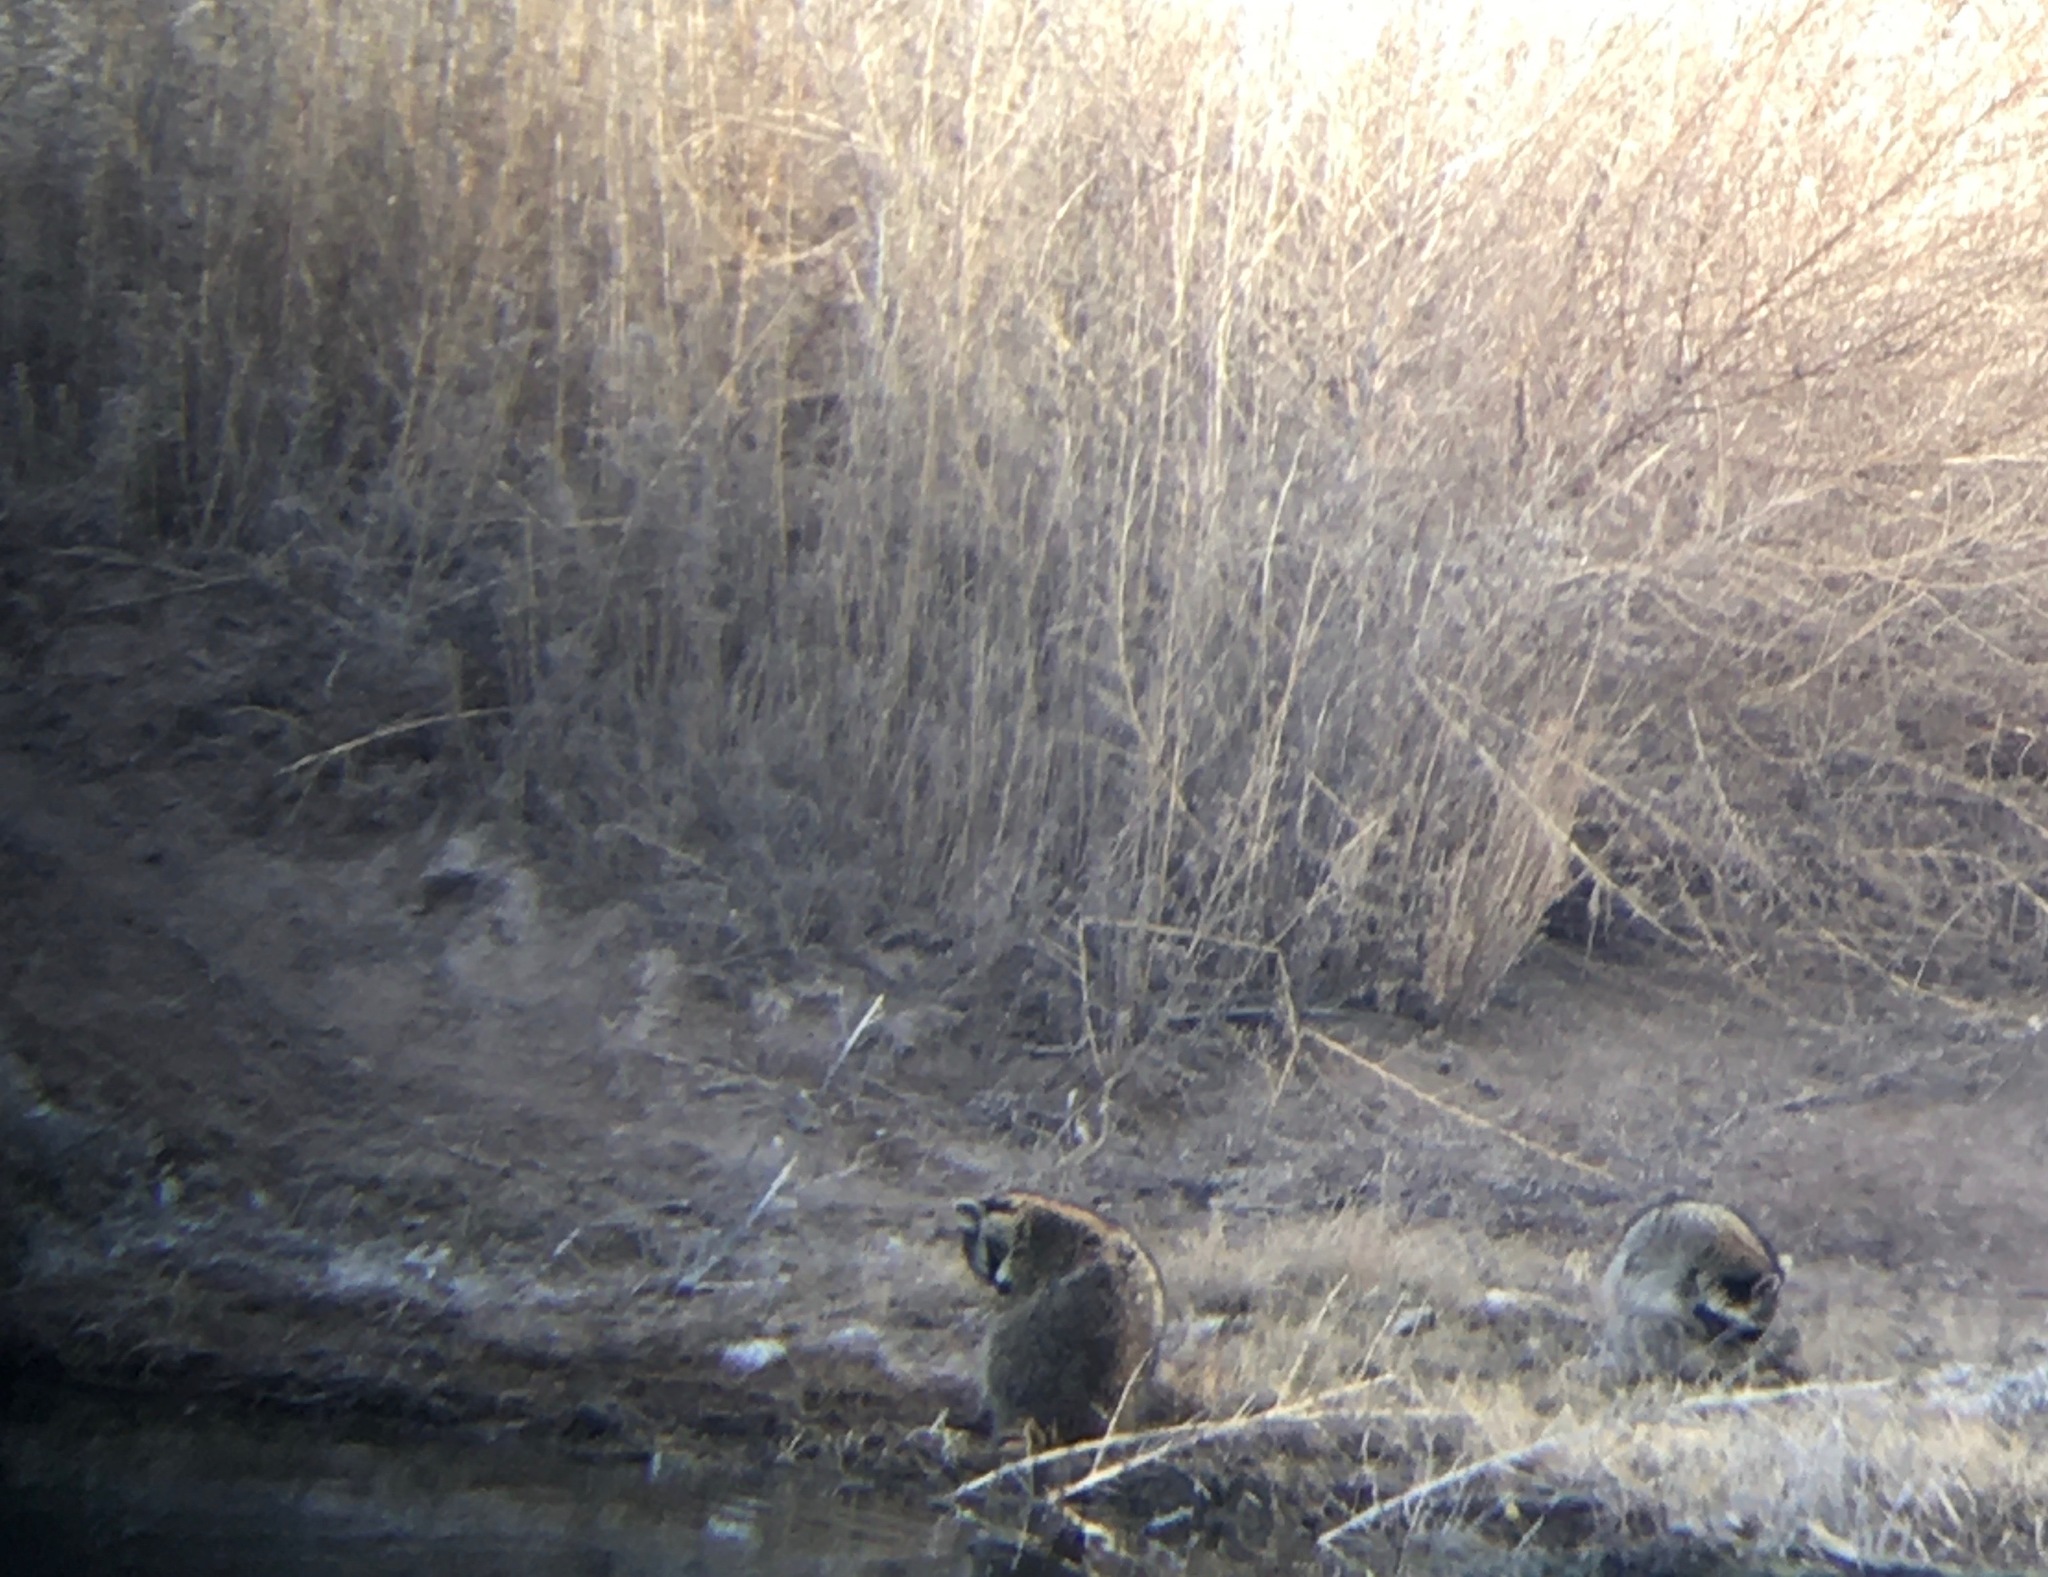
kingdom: Animalia
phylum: Chordata
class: Mammalia
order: Carnivora
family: Procyonidae
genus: Procyon
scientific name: Procyon lotor
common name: Raccoon
